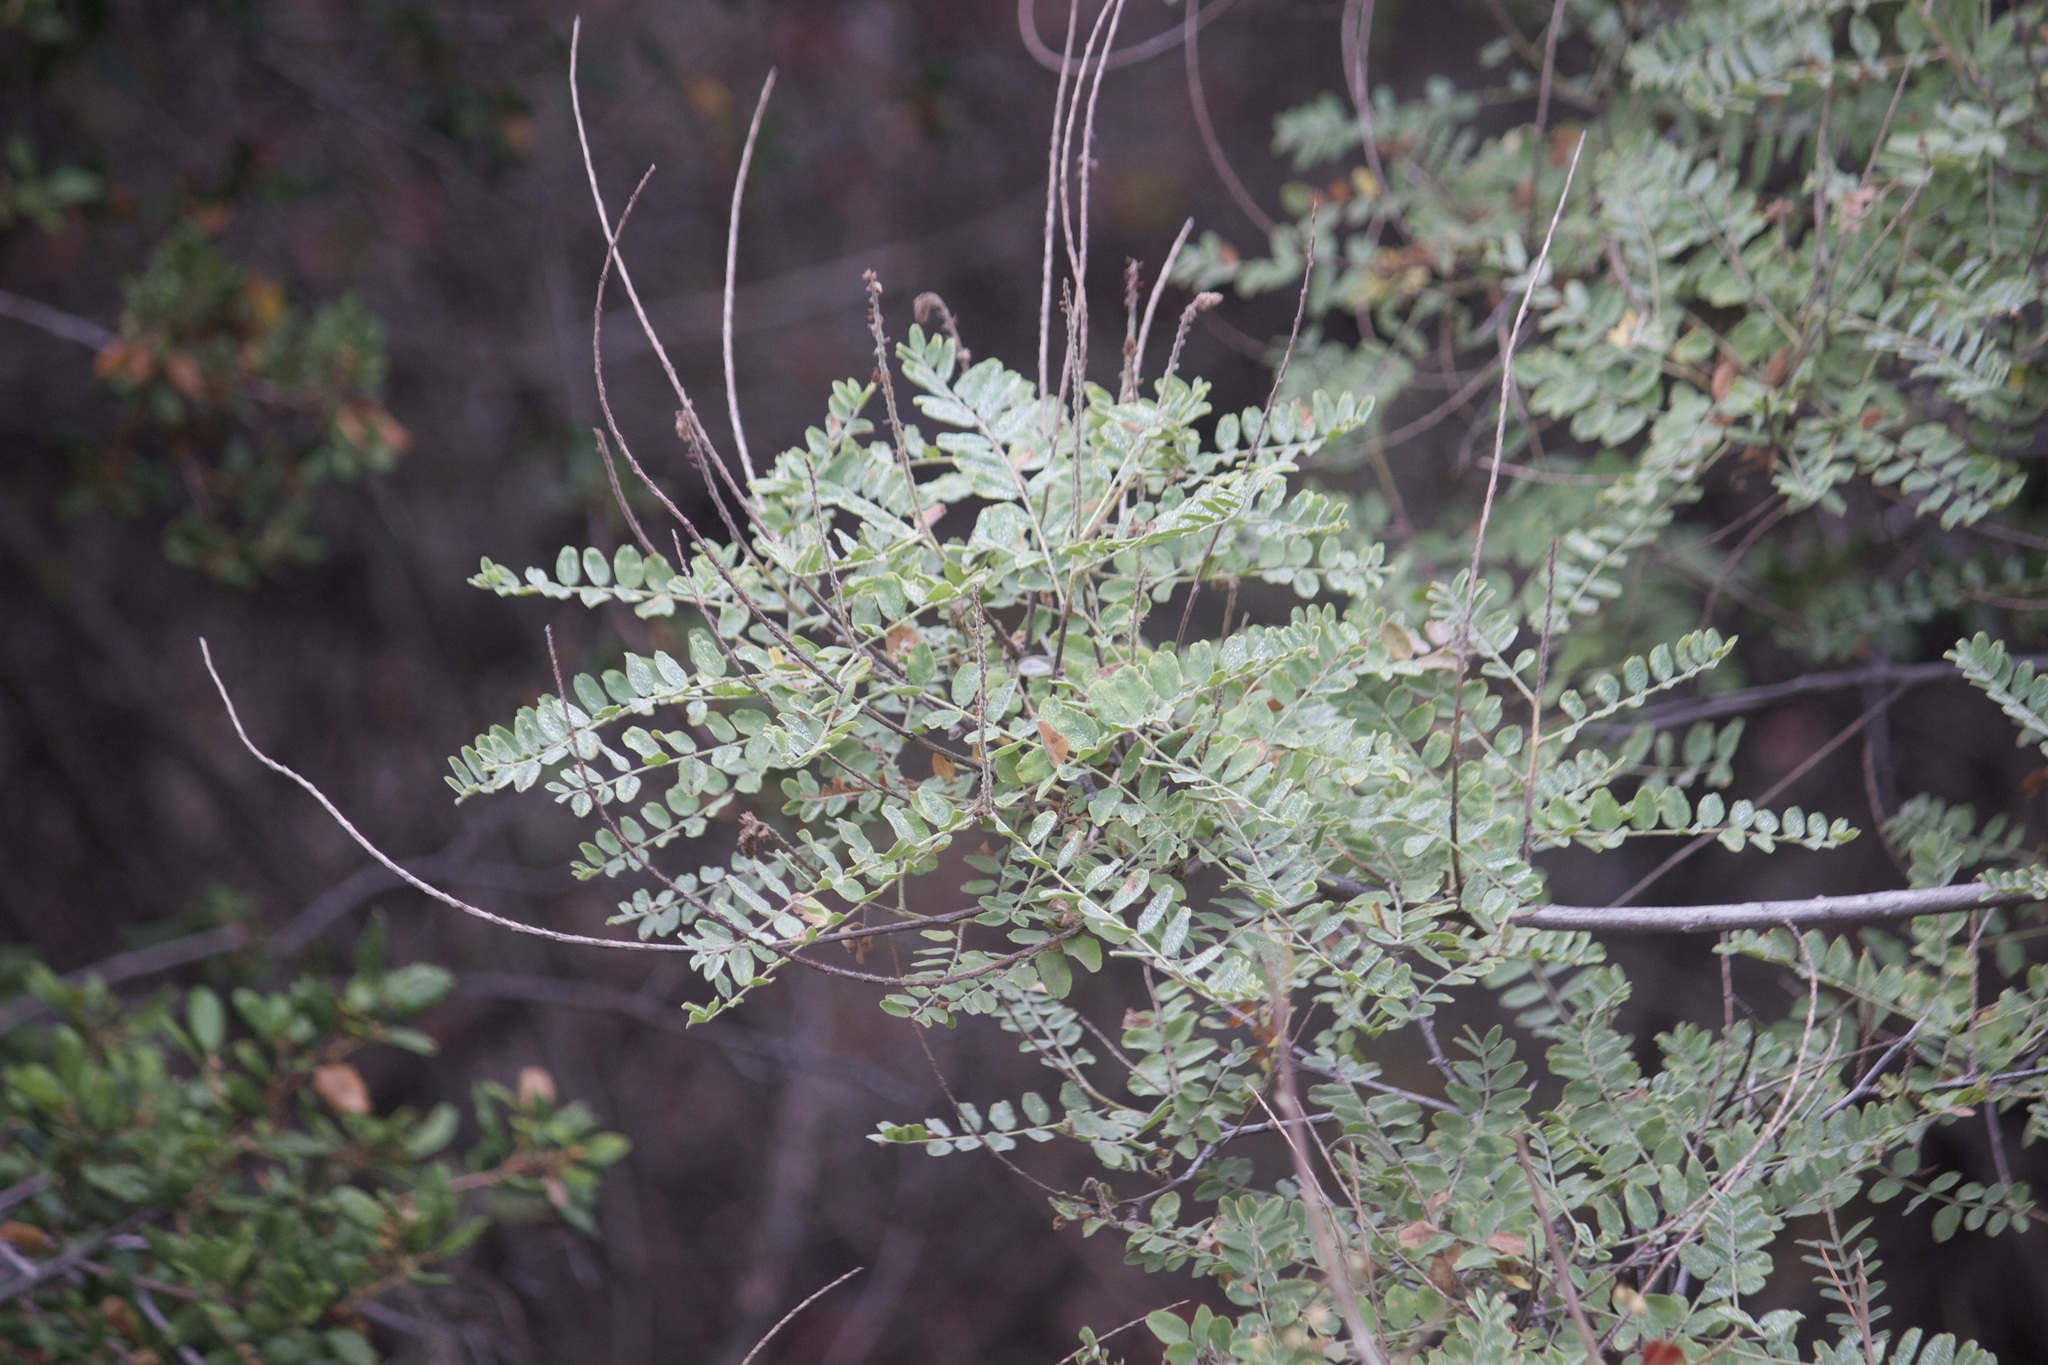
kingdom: Plantae
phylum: Tracheophyta
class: Magnoliopsida
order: Fabales
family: Fabaceae
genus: Amorpha
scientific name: Amorpha californica
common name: California indigobush
